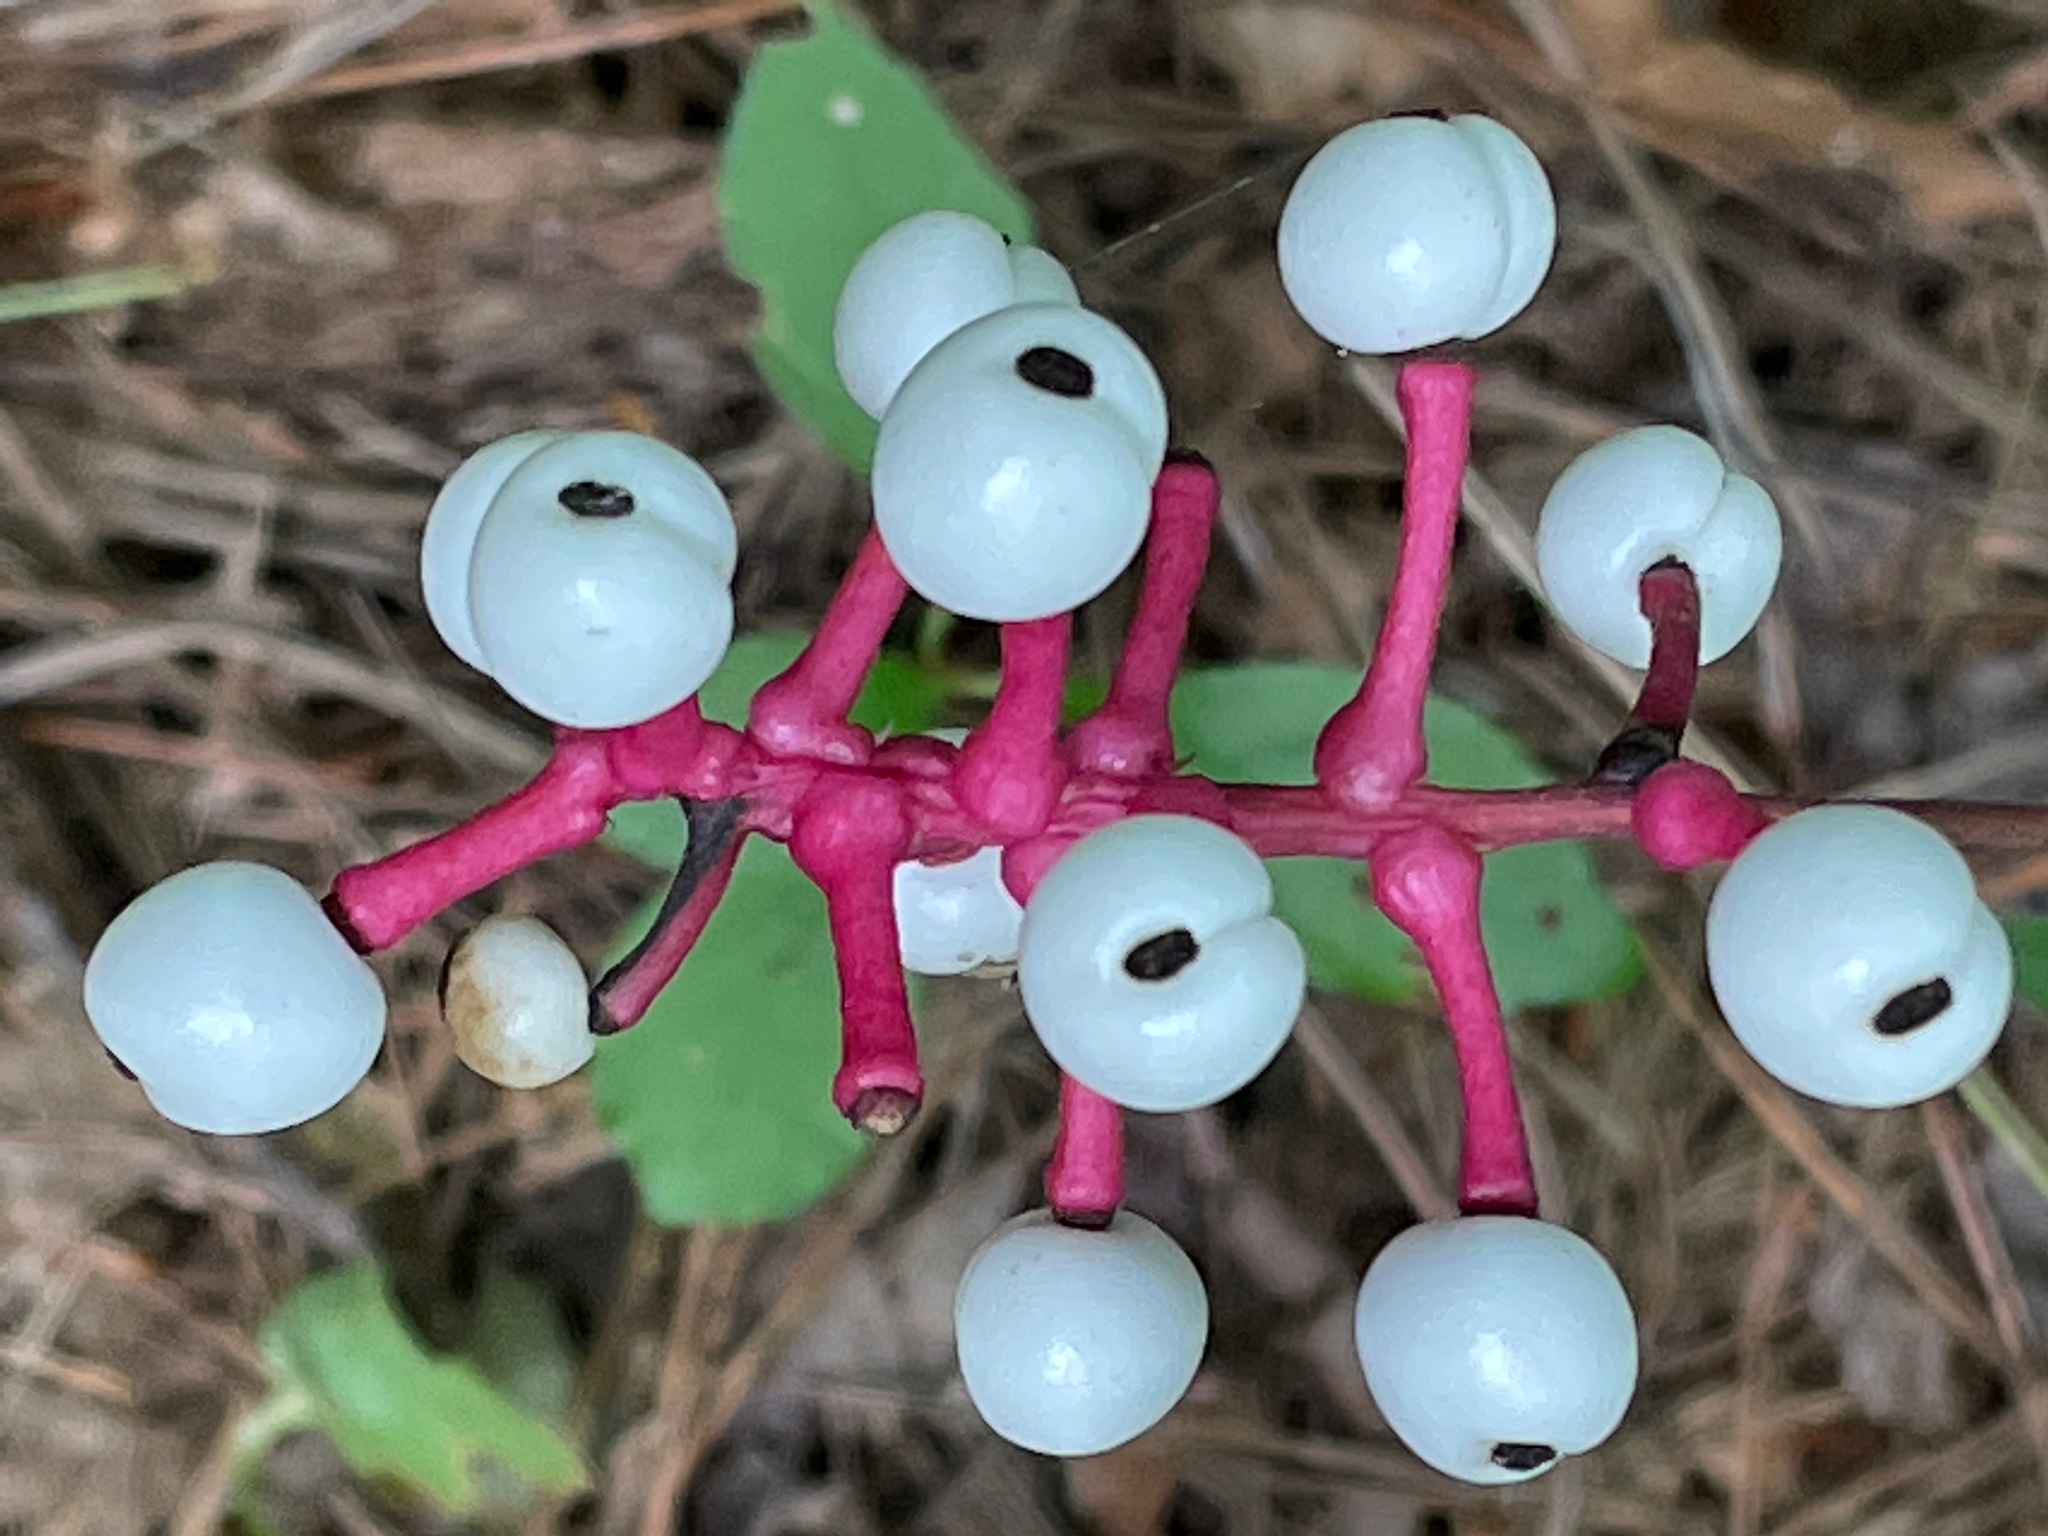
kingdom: Plantae
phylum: Tracheophyta
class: Magnoliopsida
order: Ranunculales
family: Ranunculaceae
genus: Actaea
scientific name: Actaea pachypoda
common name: Doll's-eyes
